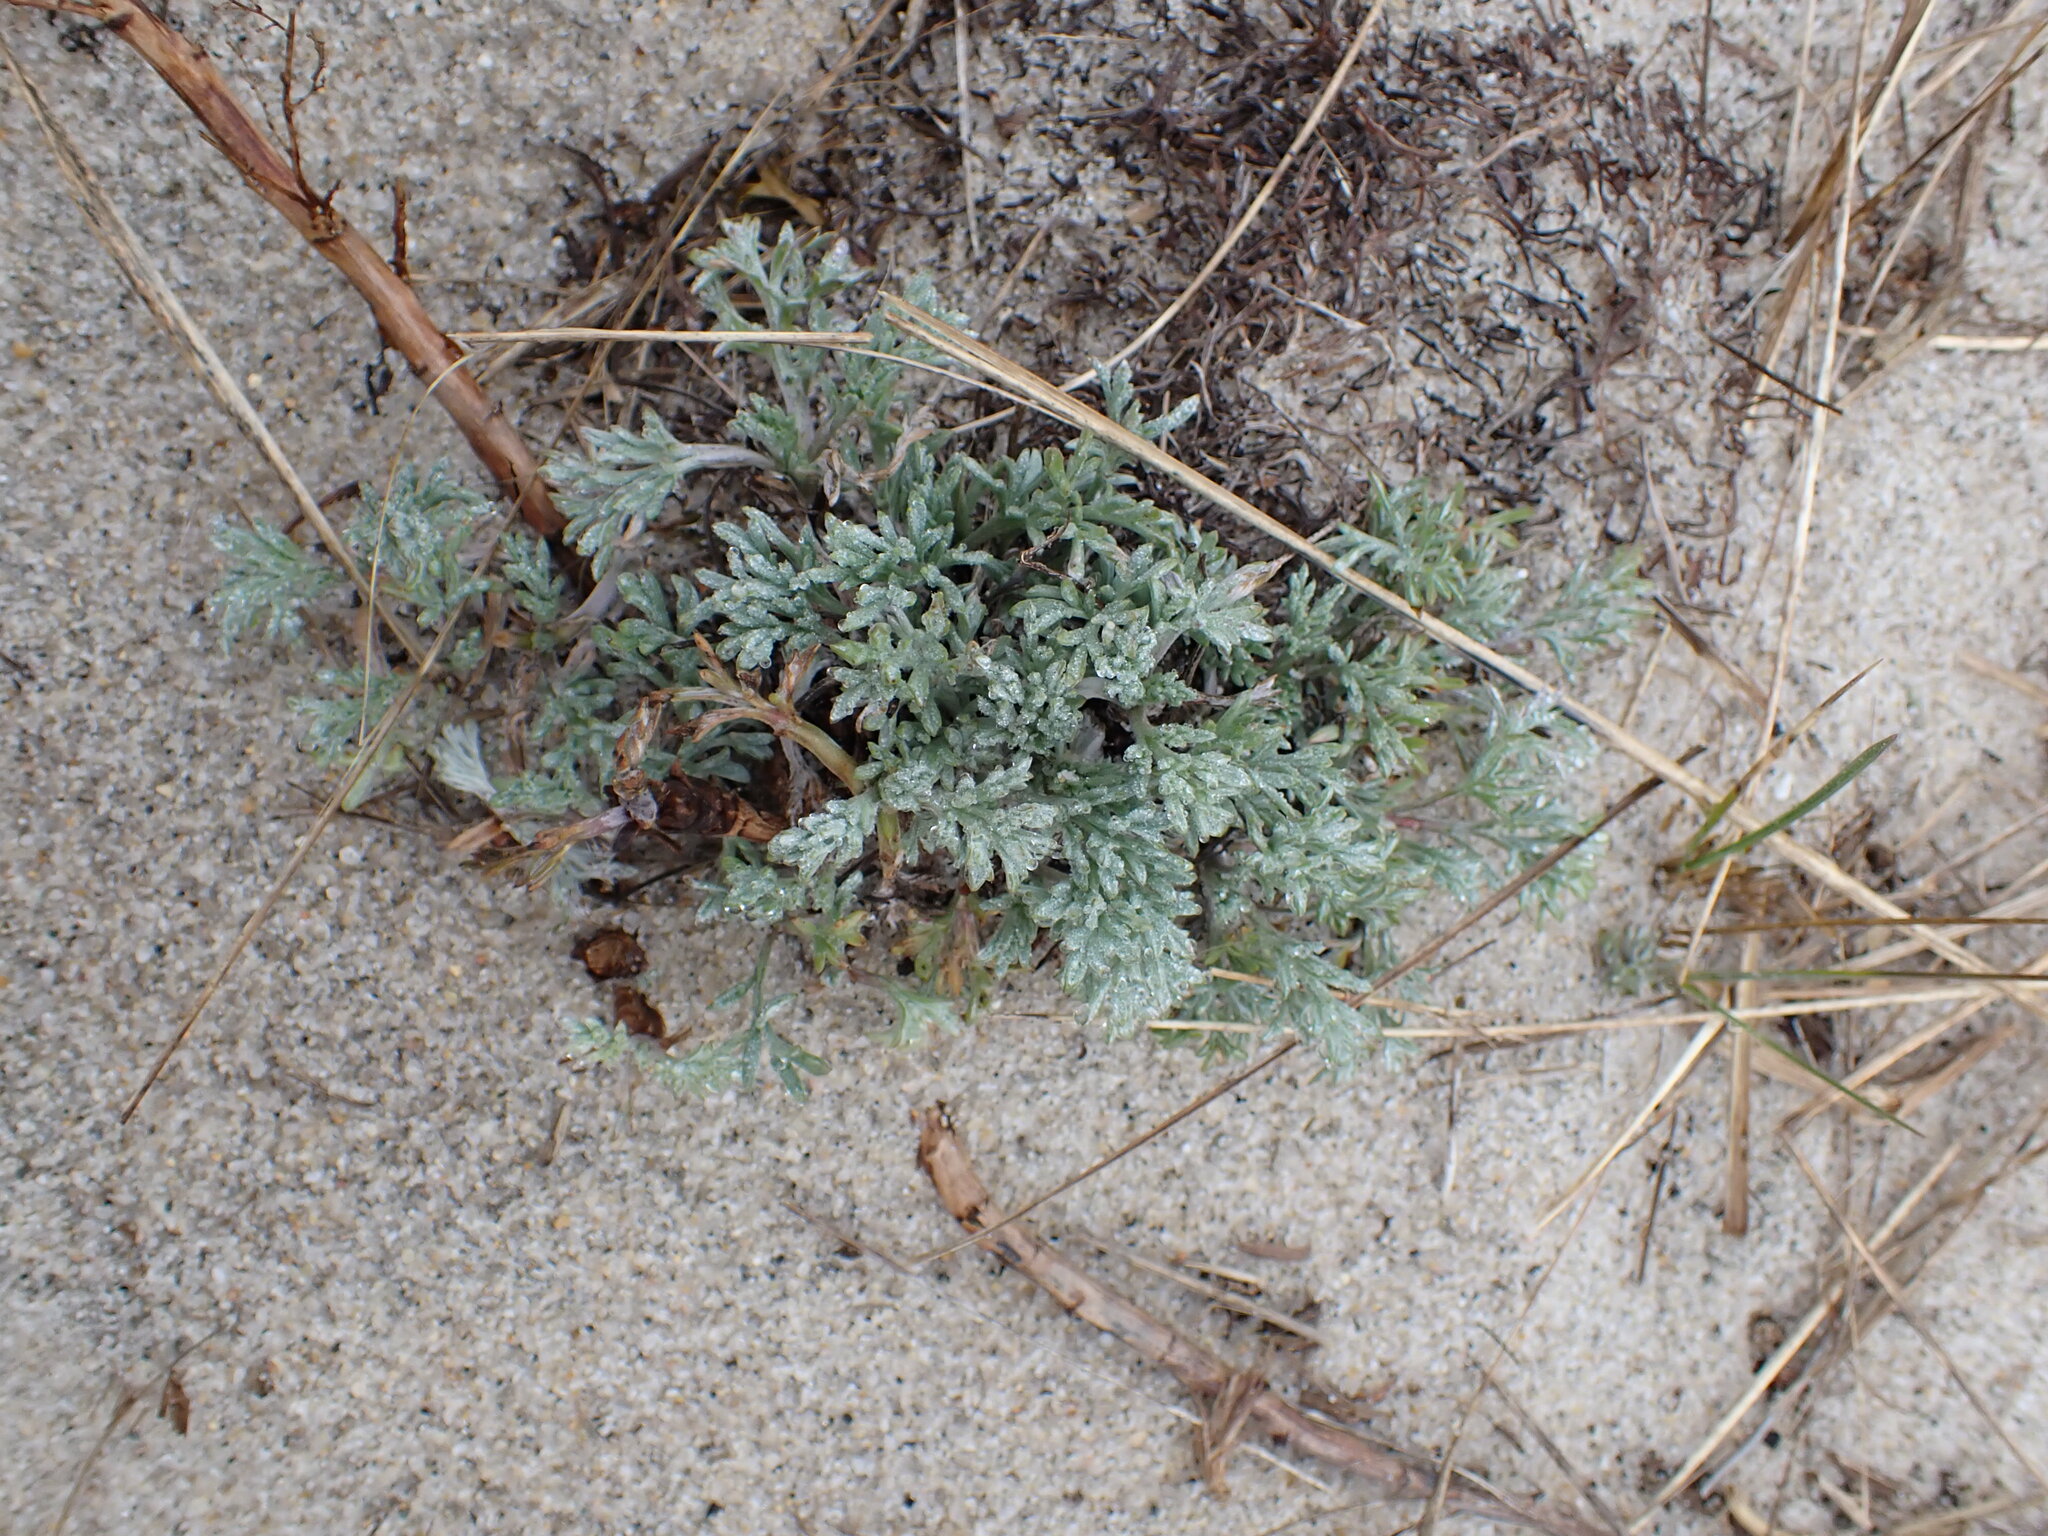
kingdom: Plantae
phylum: Tracheophyta
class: Magnoliopsida
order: Asterales
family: Asteraceae
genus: Artemisia
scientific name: Artemisia campestris
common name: Field wormwood
